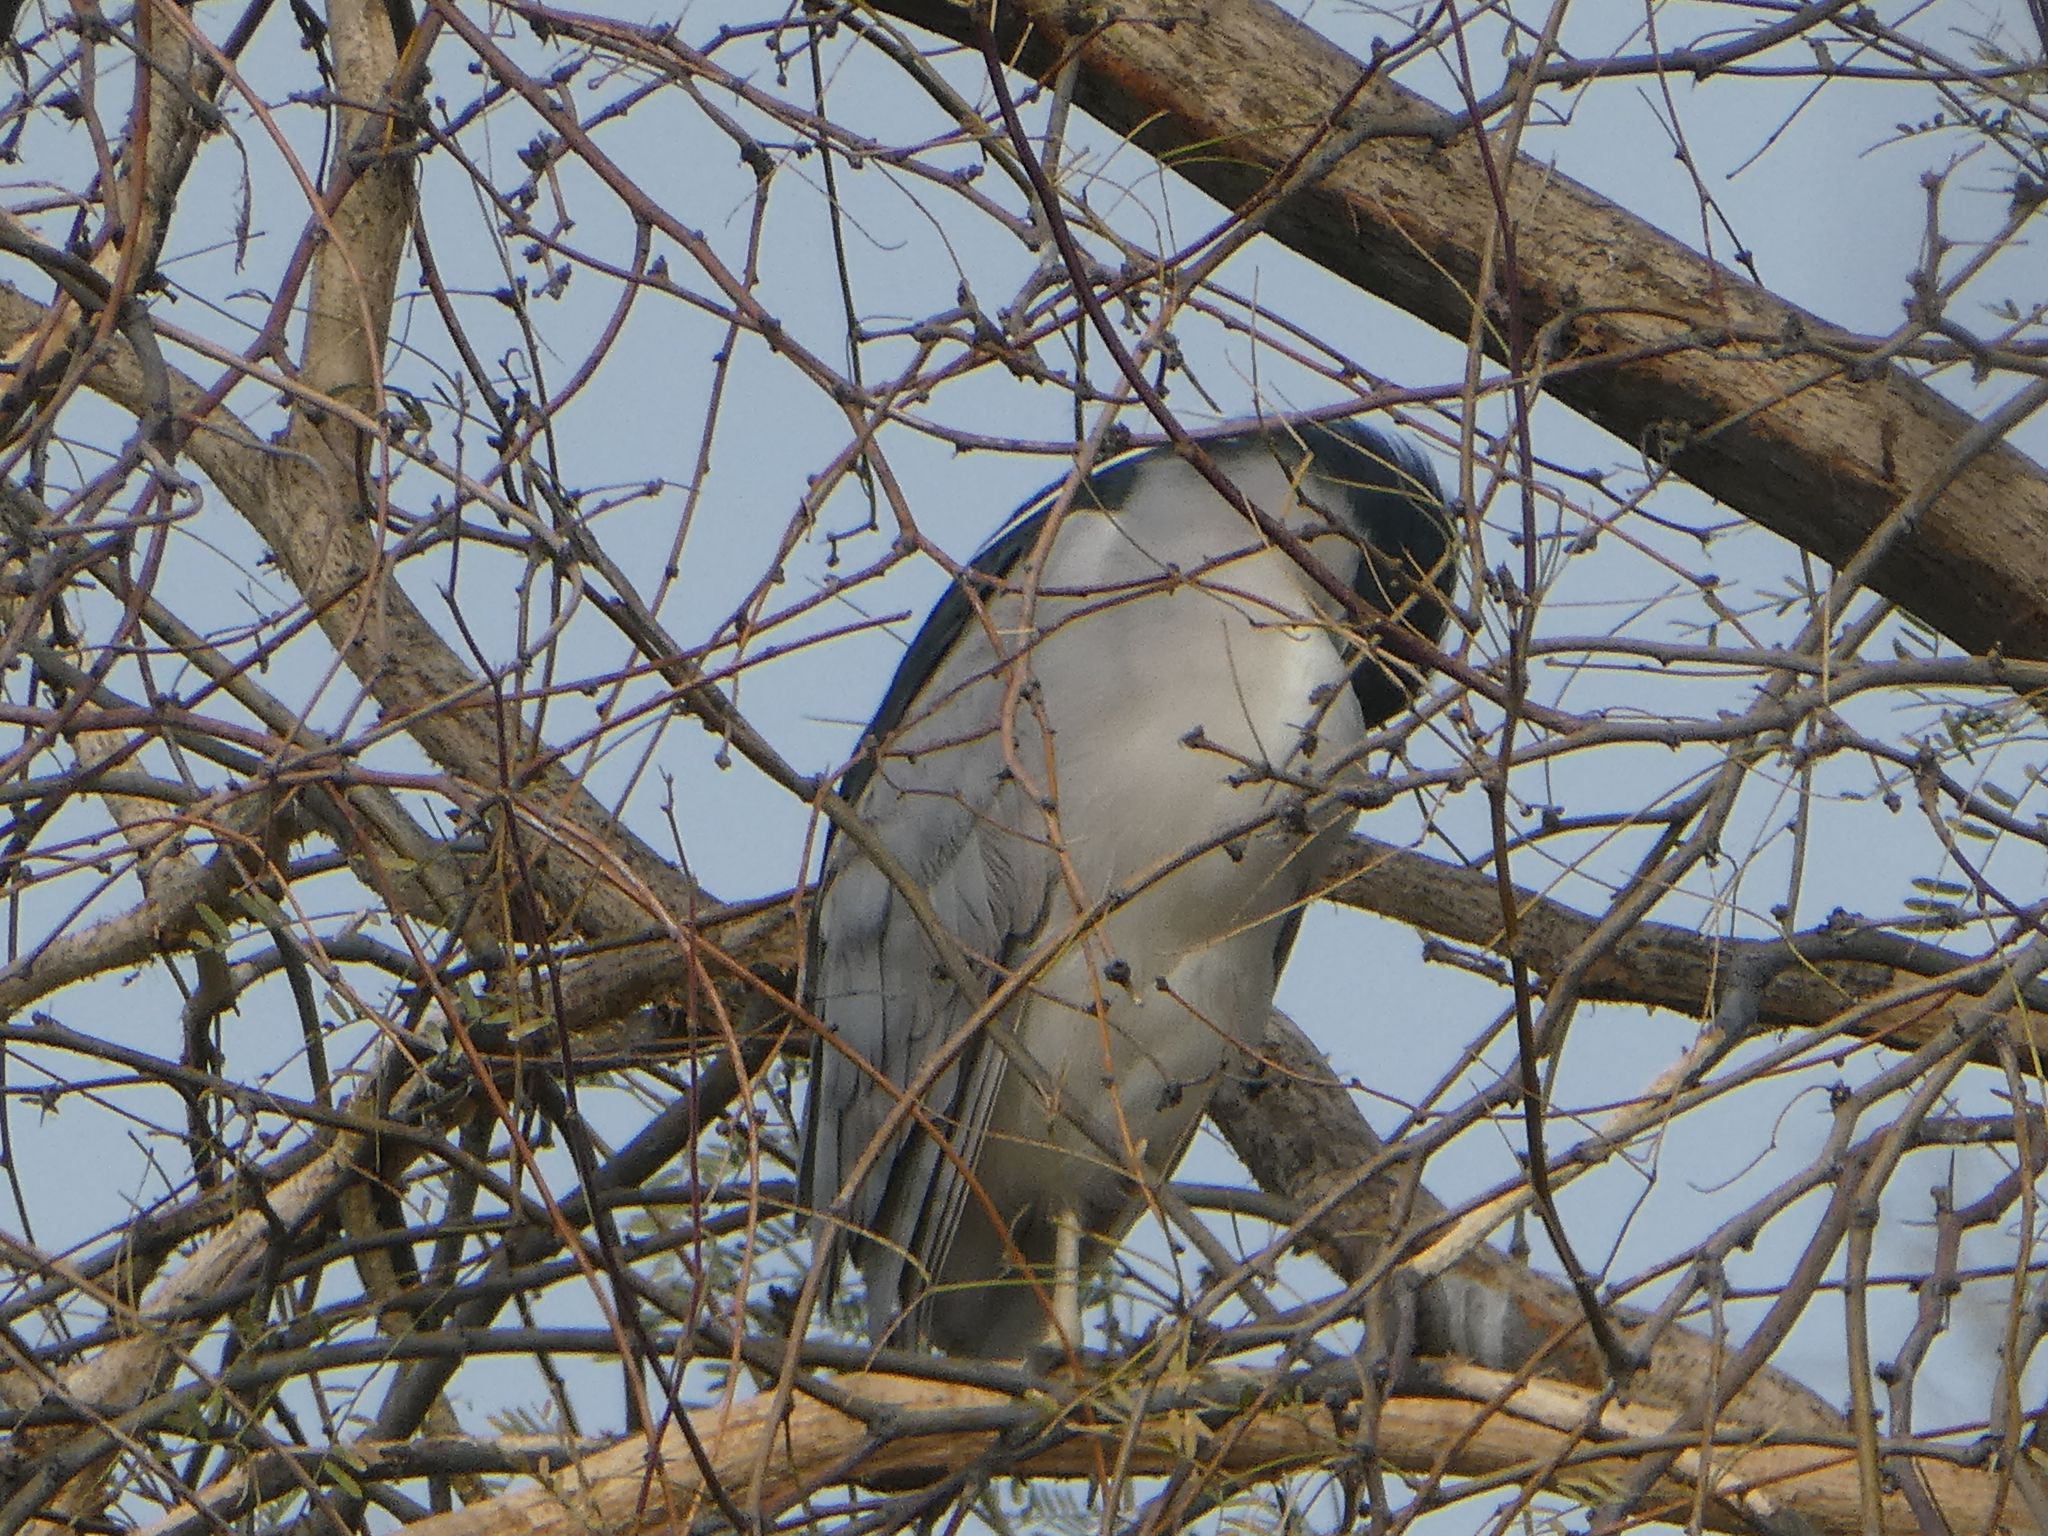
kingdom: Animalia
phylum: Chordata
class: Aves
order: Pelecaniformes
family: Ardeidae
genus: Nycticorax
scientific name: Nycticorax nycticorax
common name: Black-crowned night heron
